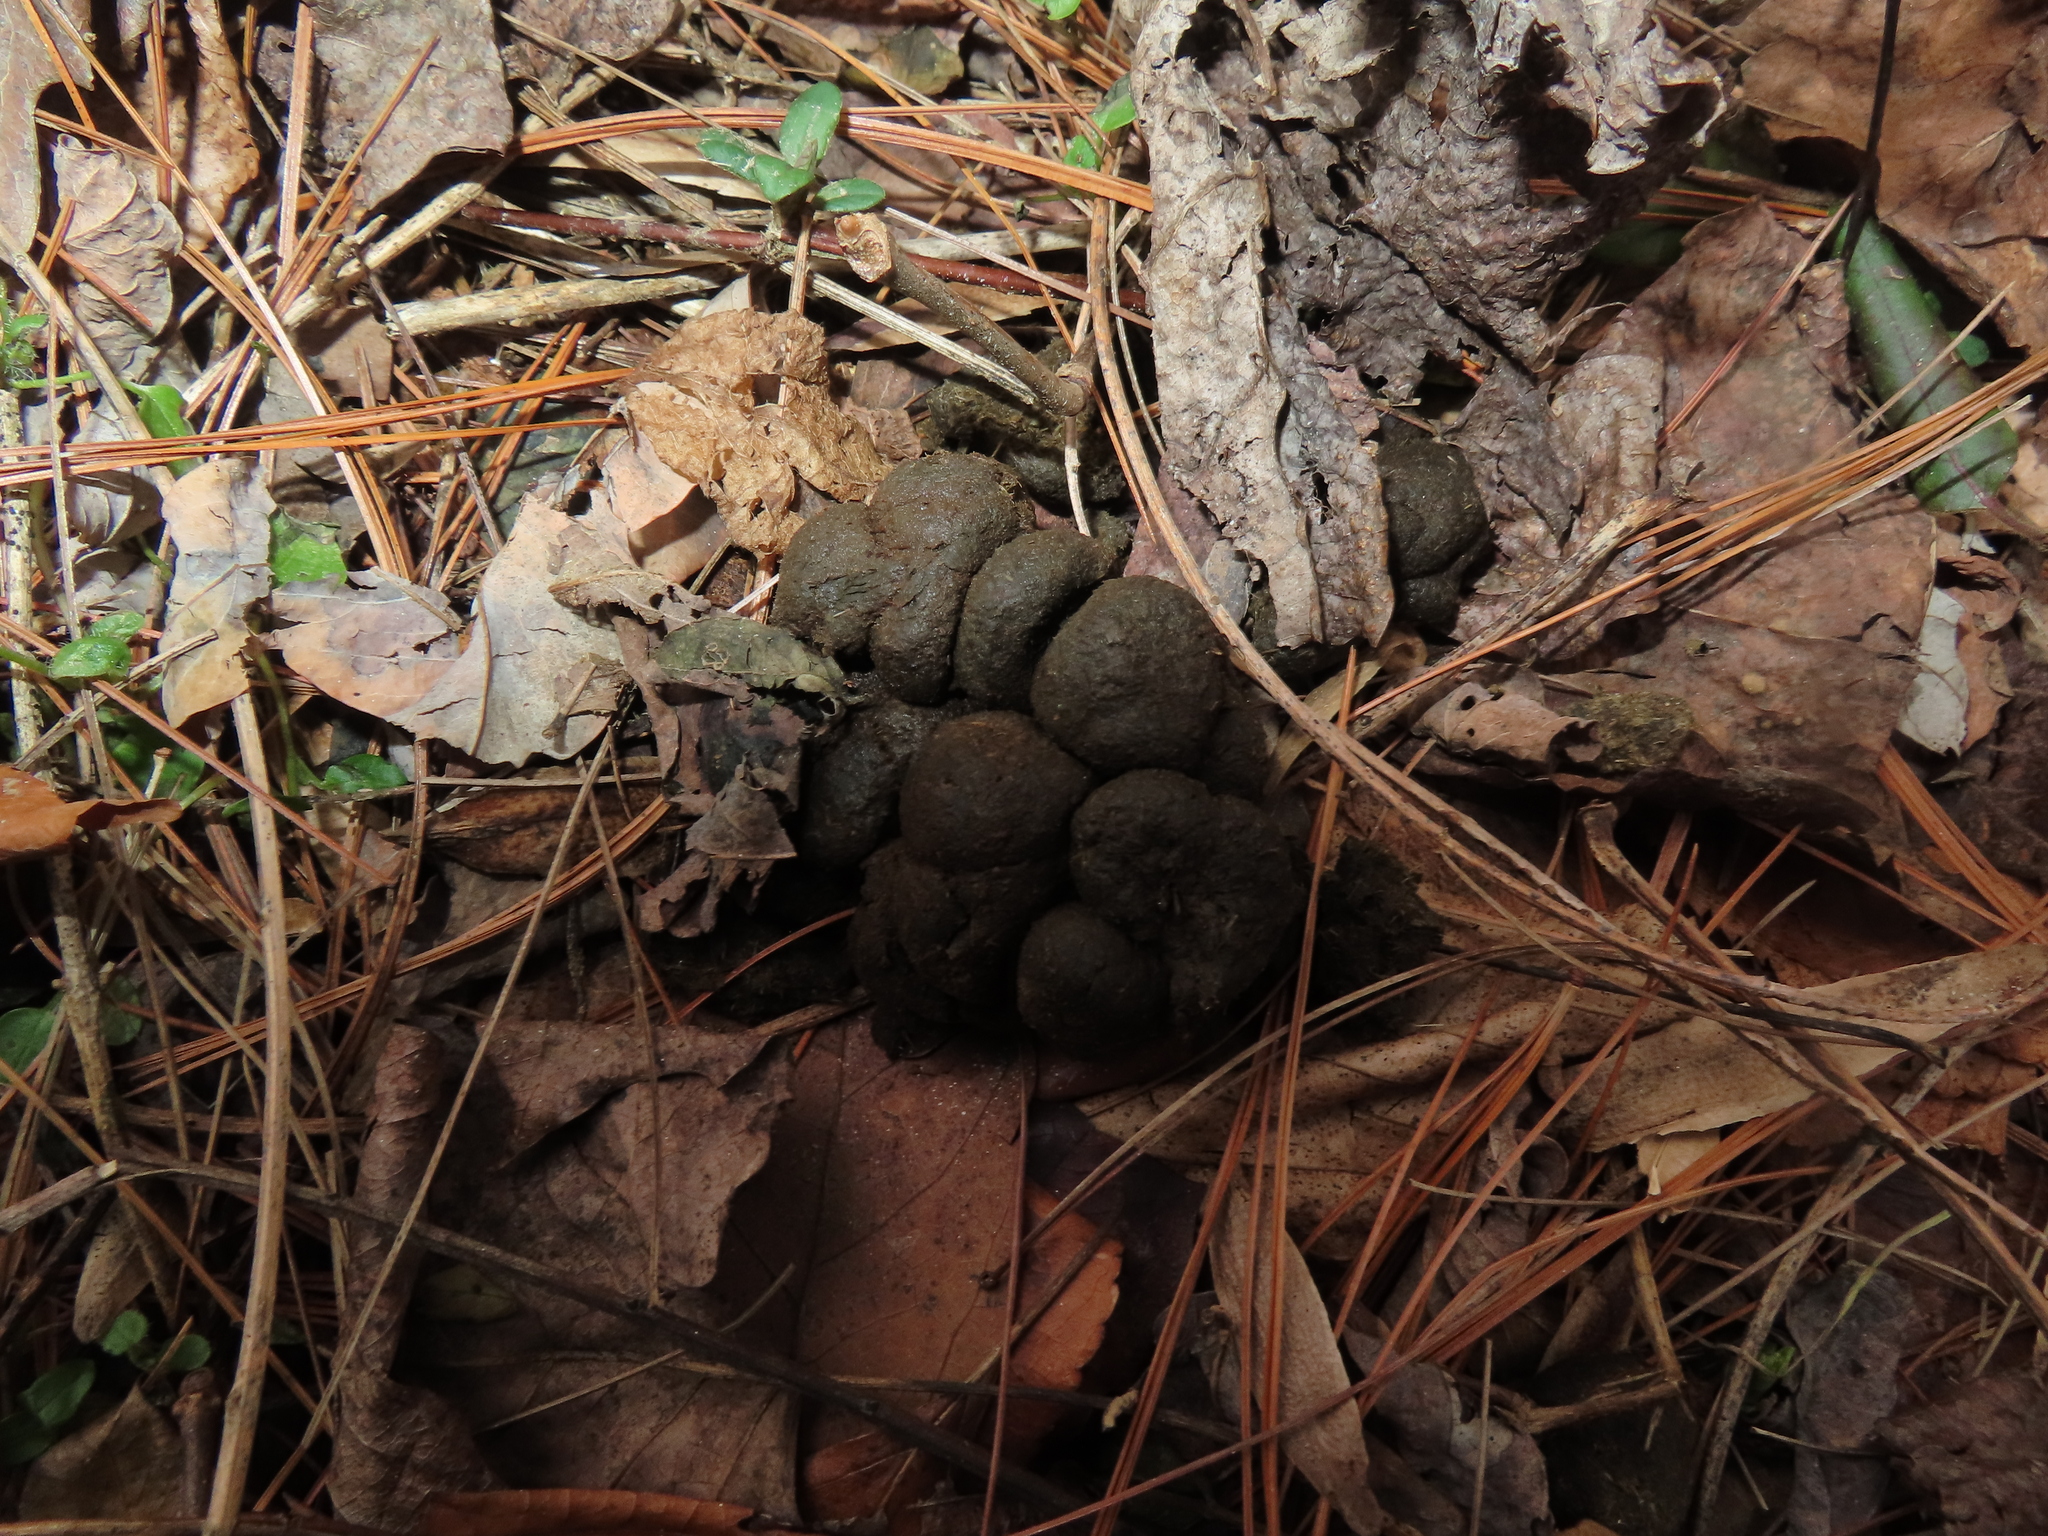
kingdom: Animalia
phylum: Chordata
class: Mammalia
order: Artiodactyla
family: Cervidae
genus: Odocoileus
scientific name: Odocoileus virginianus
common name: White-tailed deer
